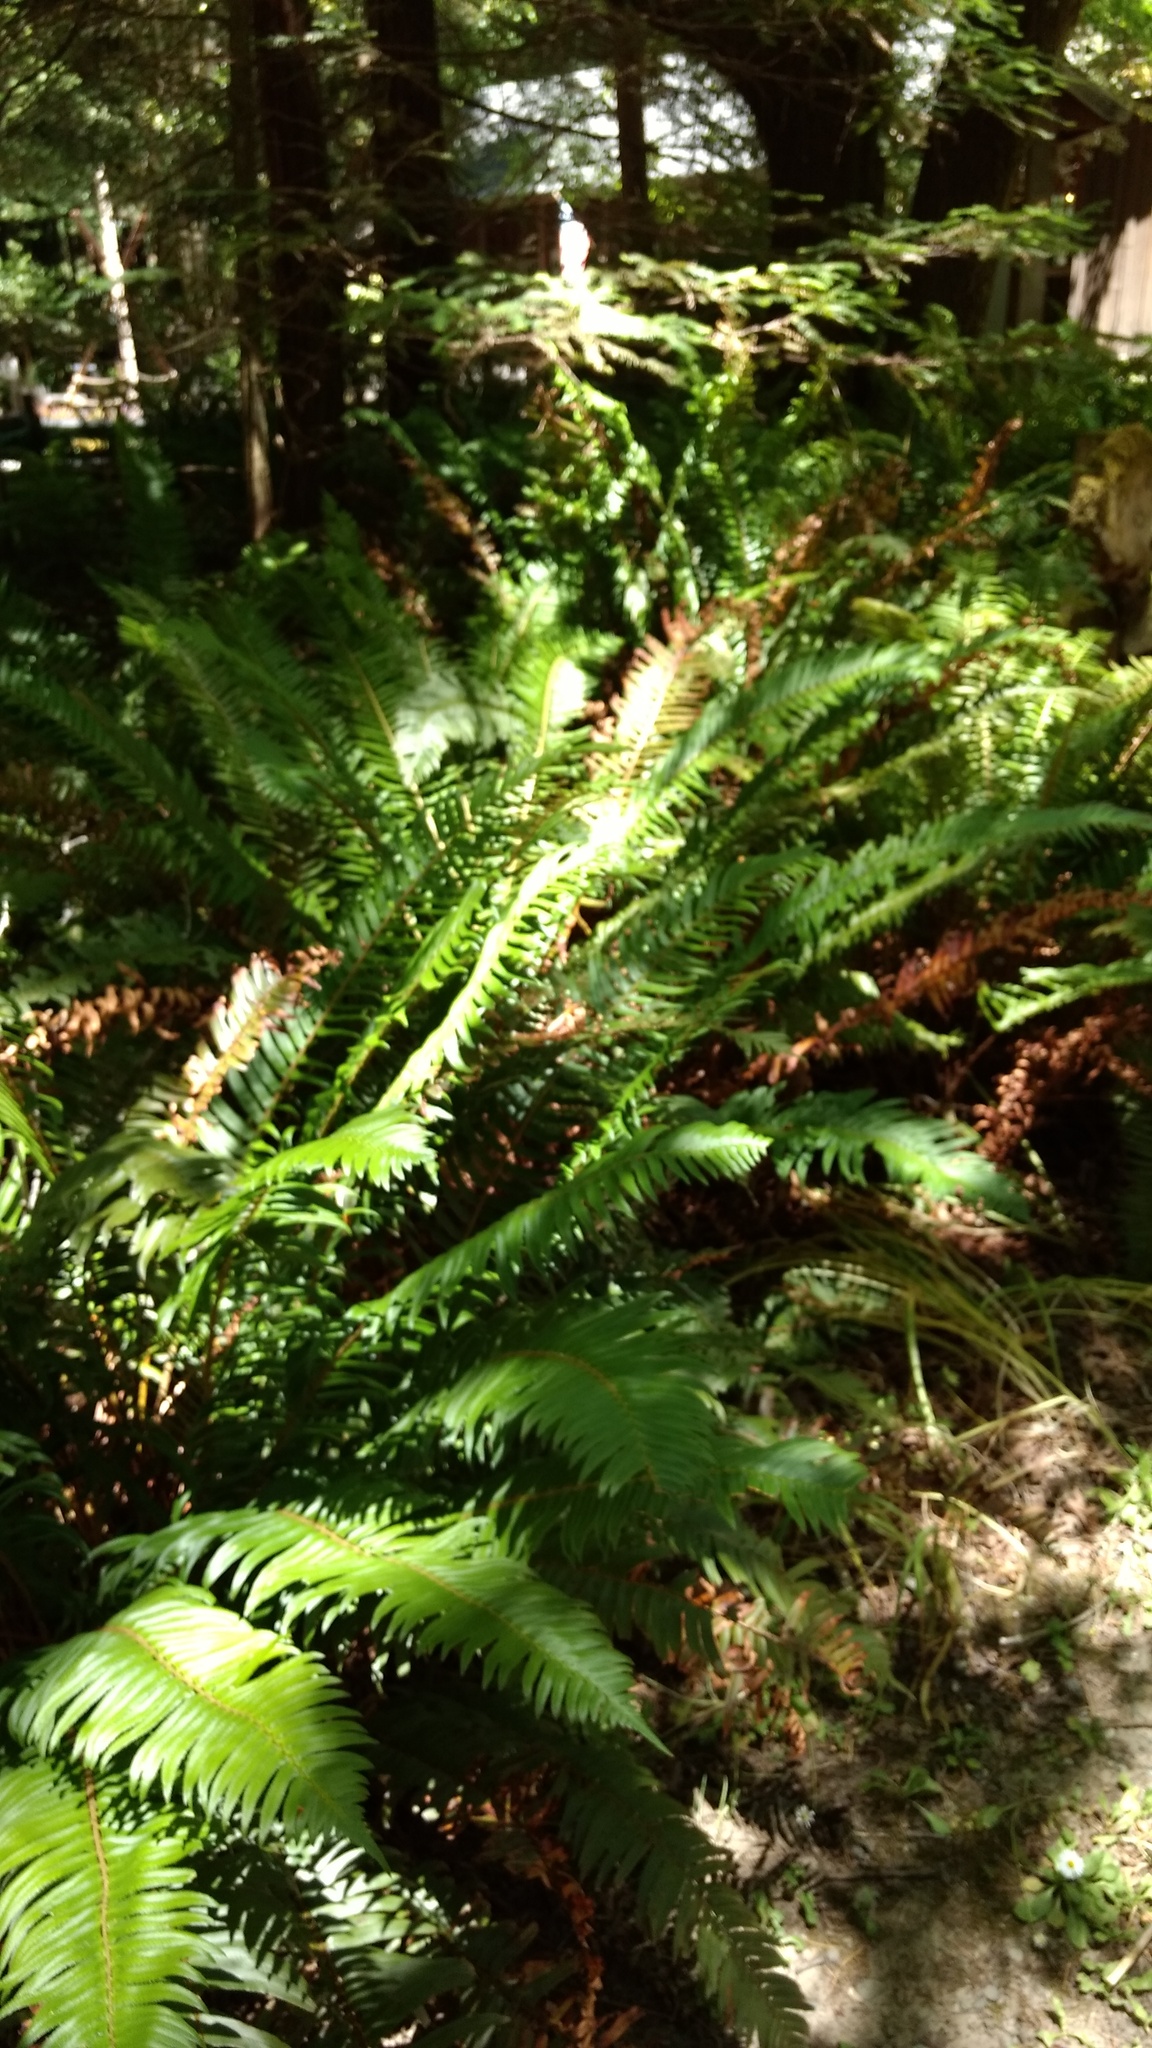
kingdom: Plantae
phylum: Tracheophyta
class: Polypodiopsida
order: Polypodiales
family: Dryopteridaceae
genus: Polystichum
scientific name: Polystichum munitum
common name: Western sword-fern
